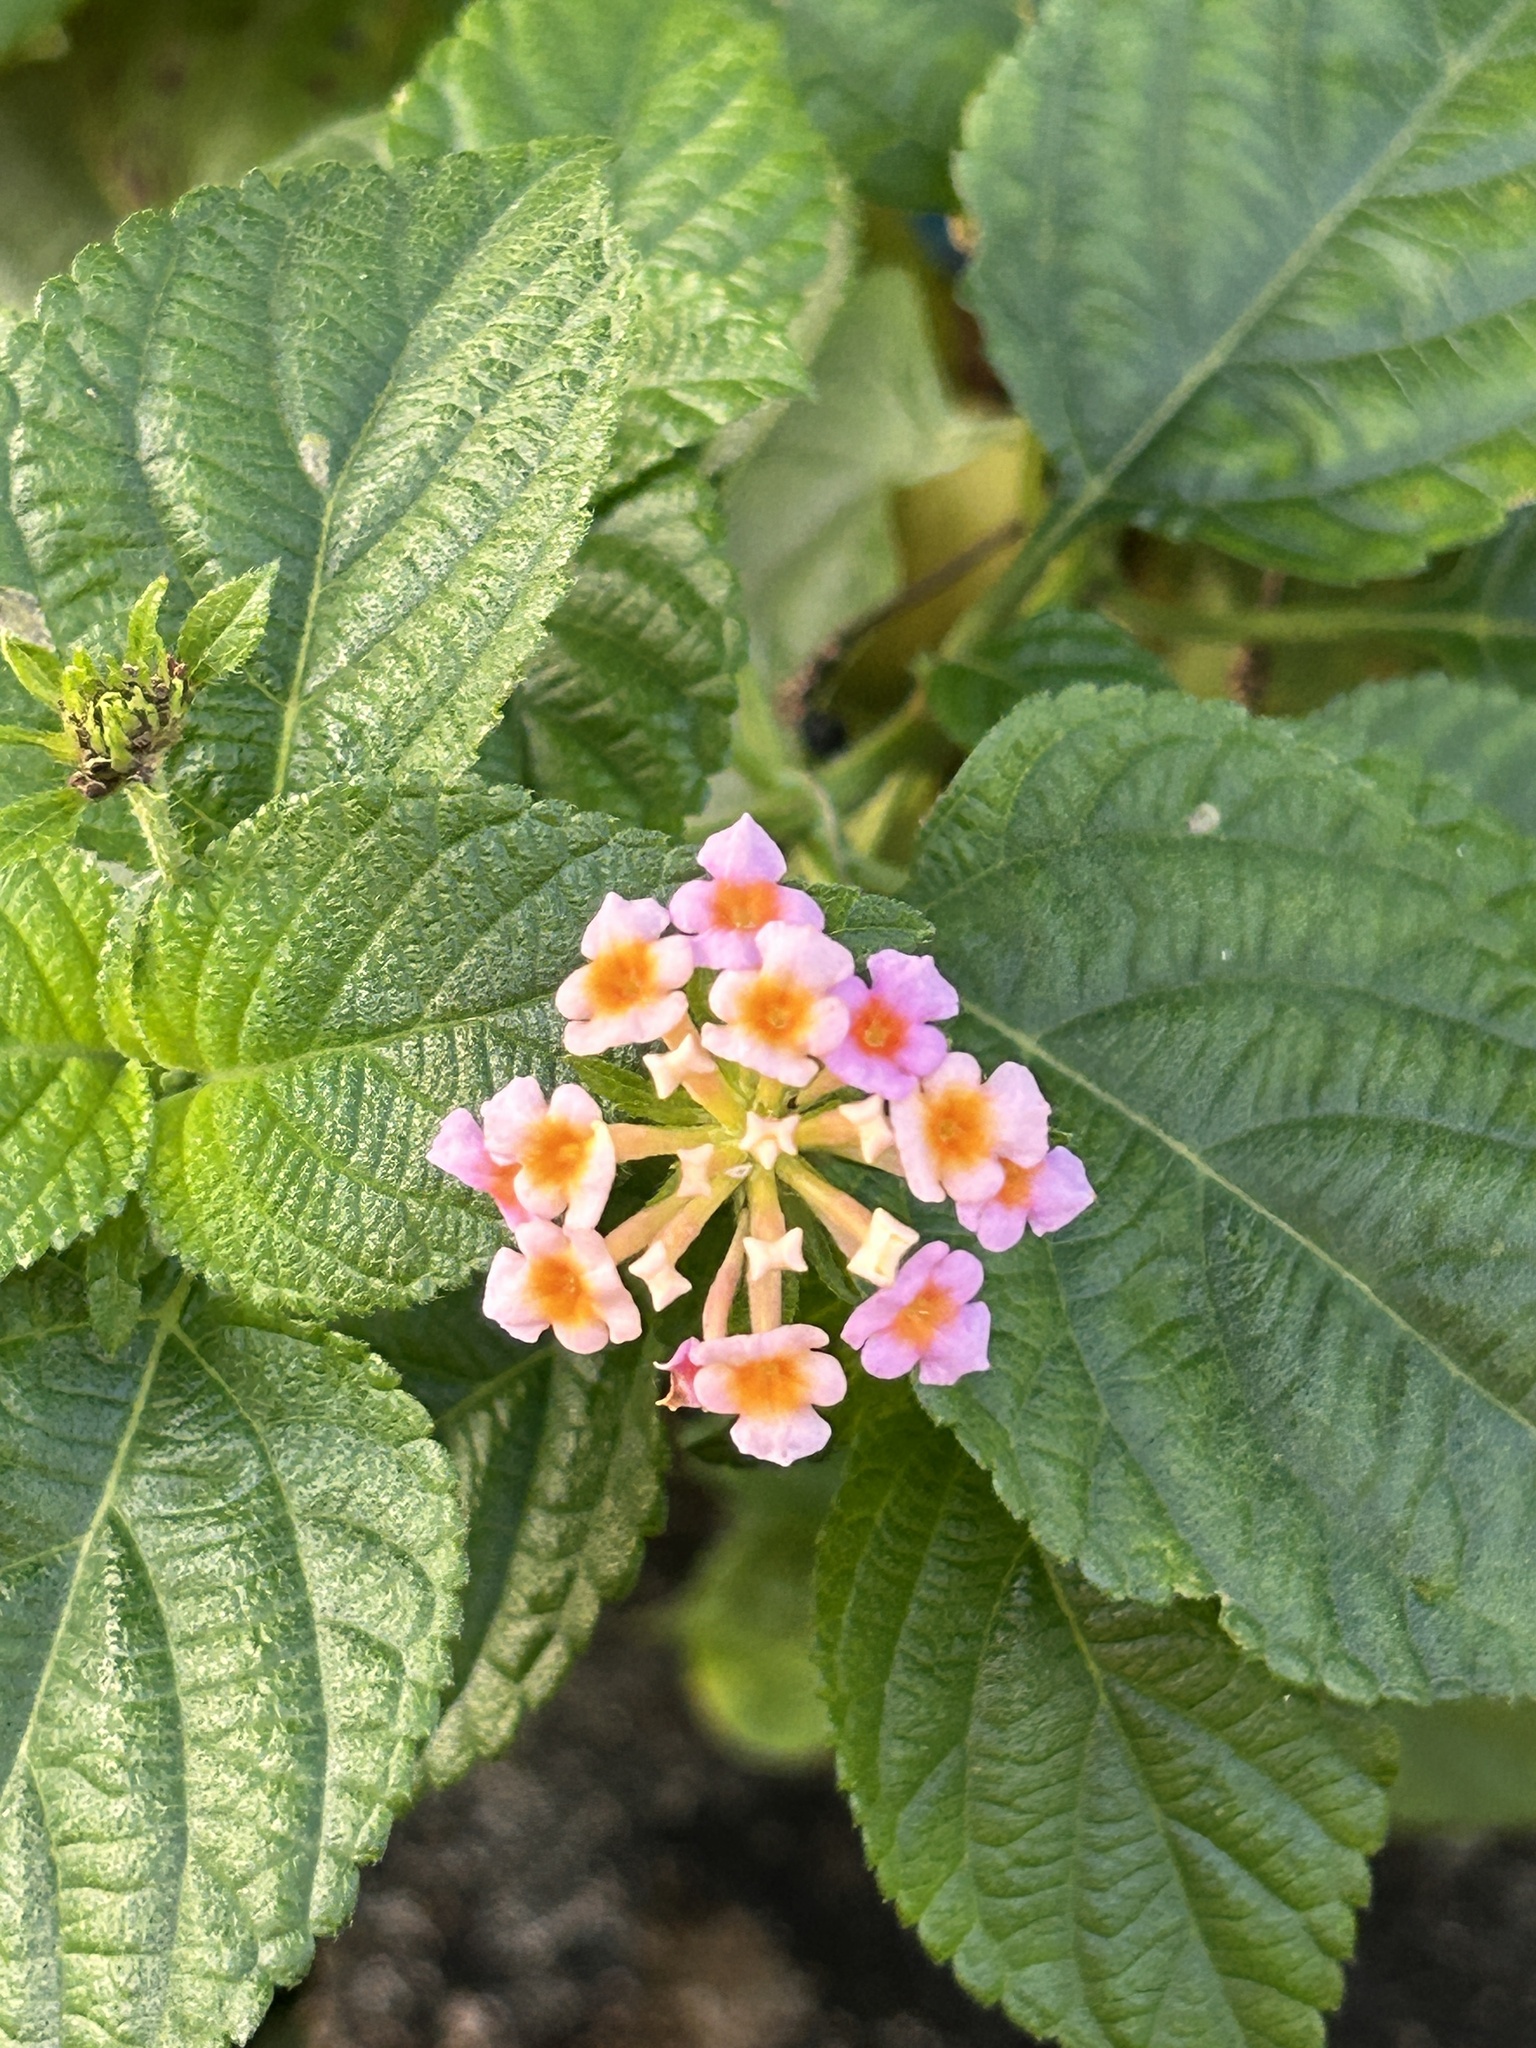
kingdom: Plantae
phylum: Tracheophyta
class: Magnoliopsida
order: Lamiales
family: Verbenaceae
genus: Lantana
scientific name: Lantana camara
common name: Lantana
